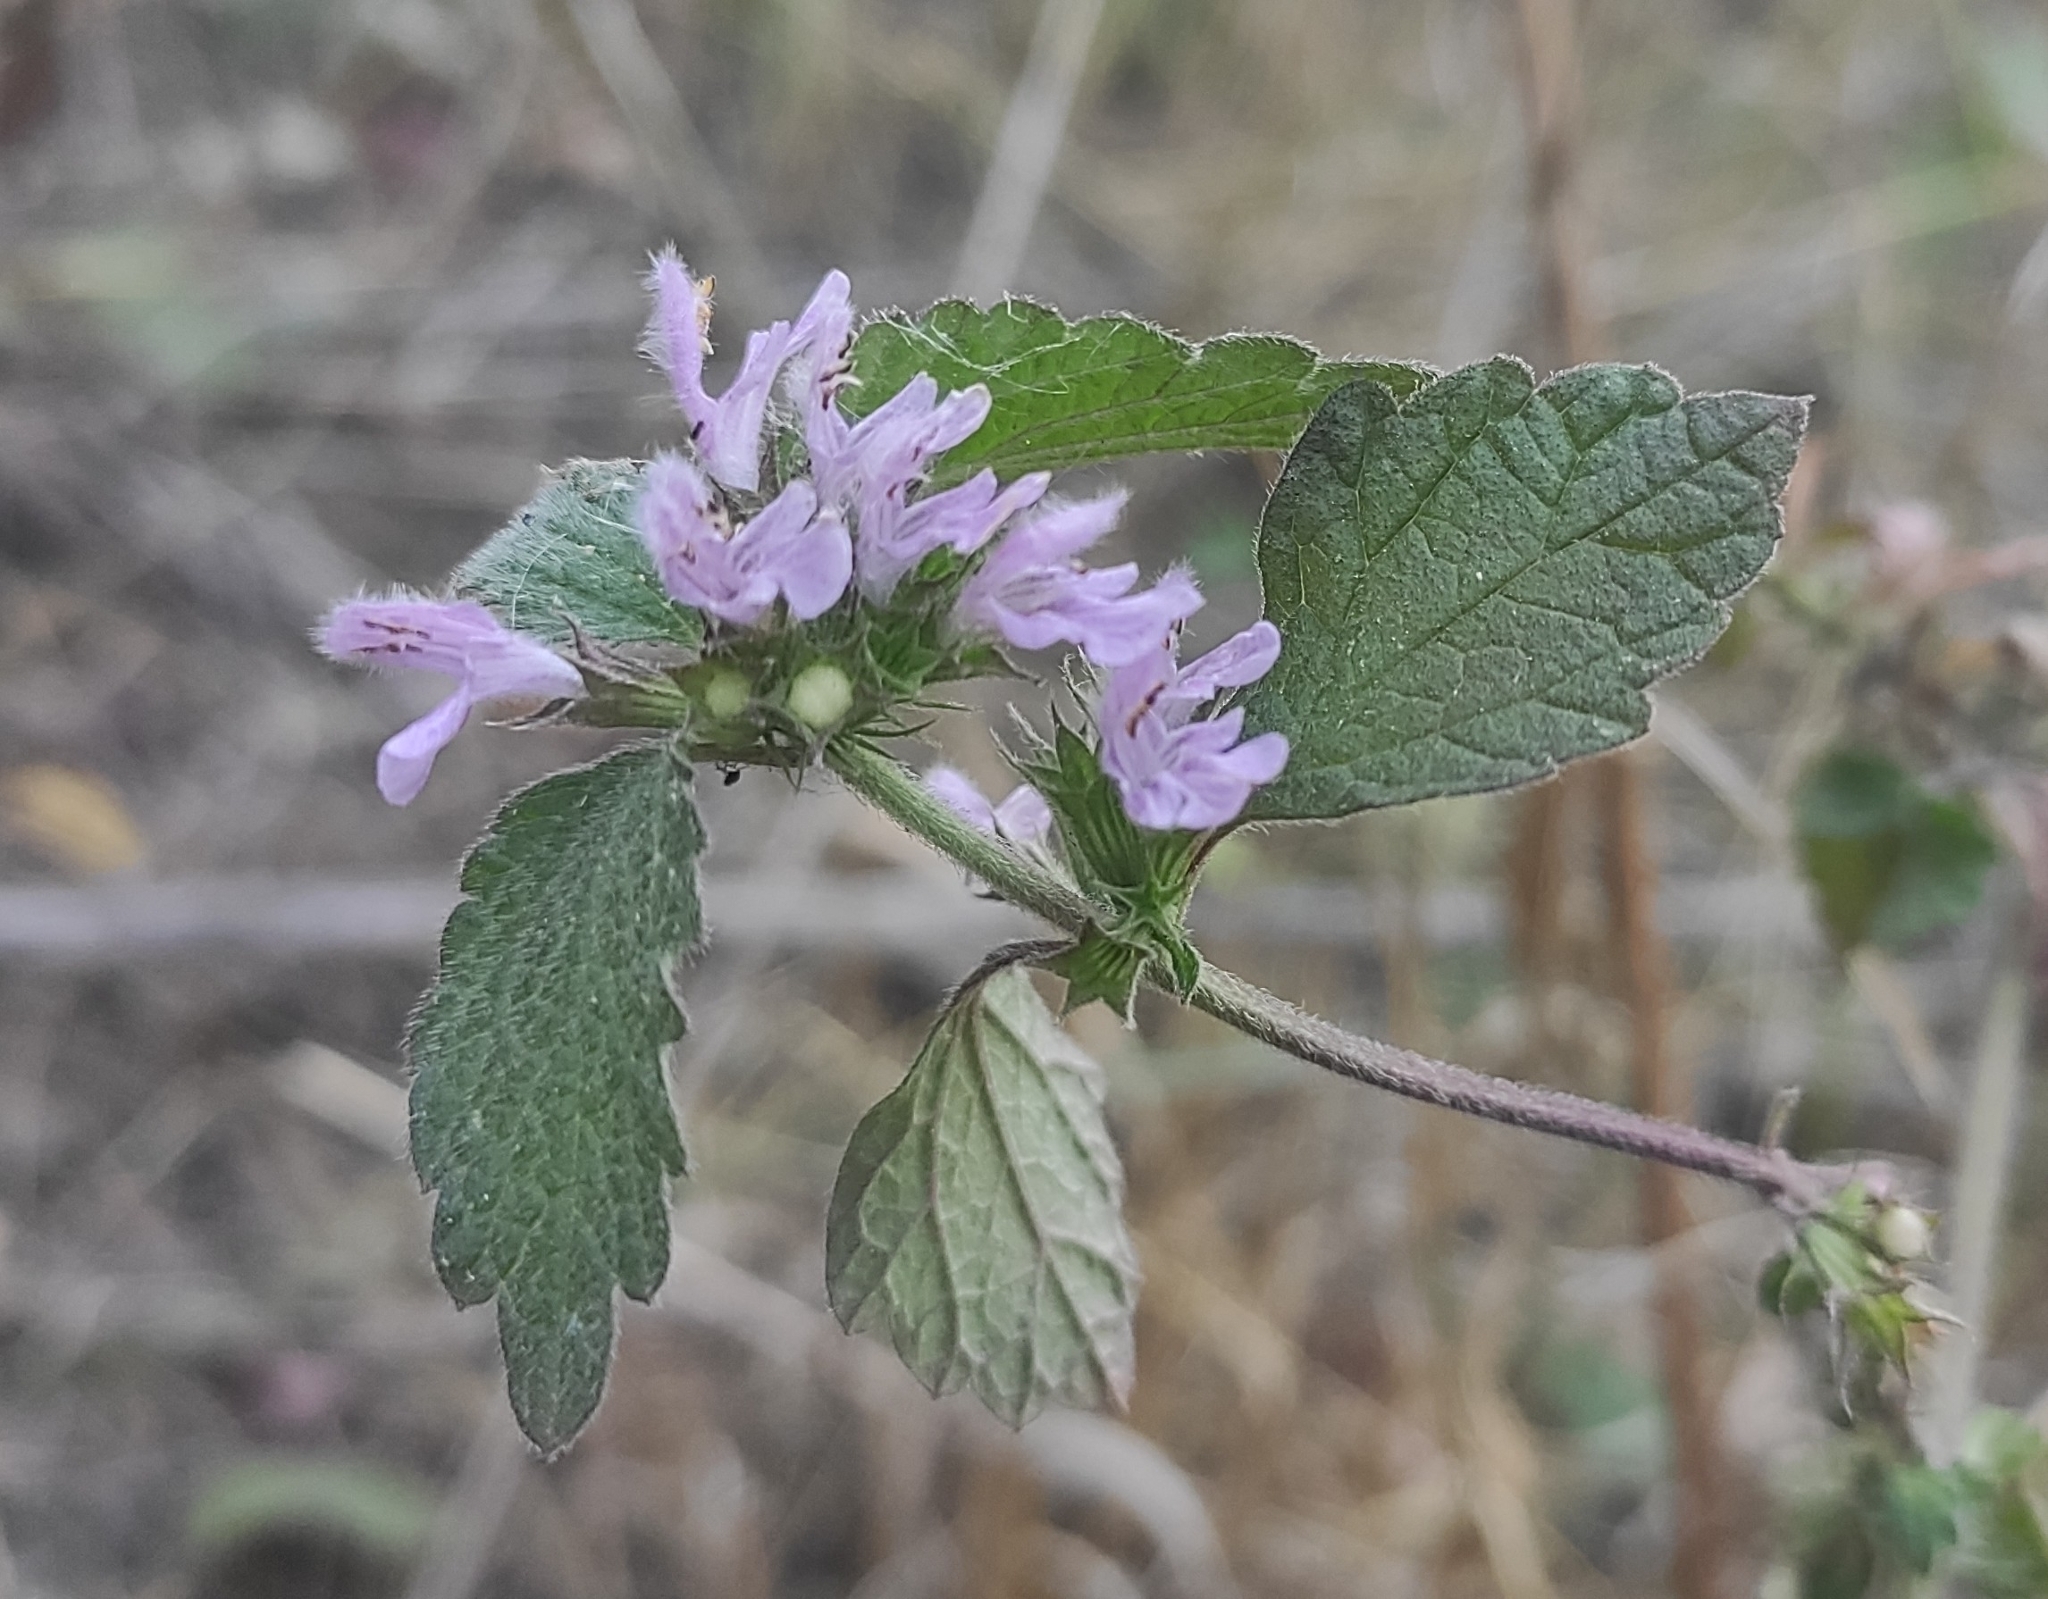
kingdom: Plantae
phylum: Tracheophyta
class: Magnoliopsida
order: Lamiales
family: Lamiaceae
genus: Ballota
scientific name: Ballota nigra
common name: Black horehound
